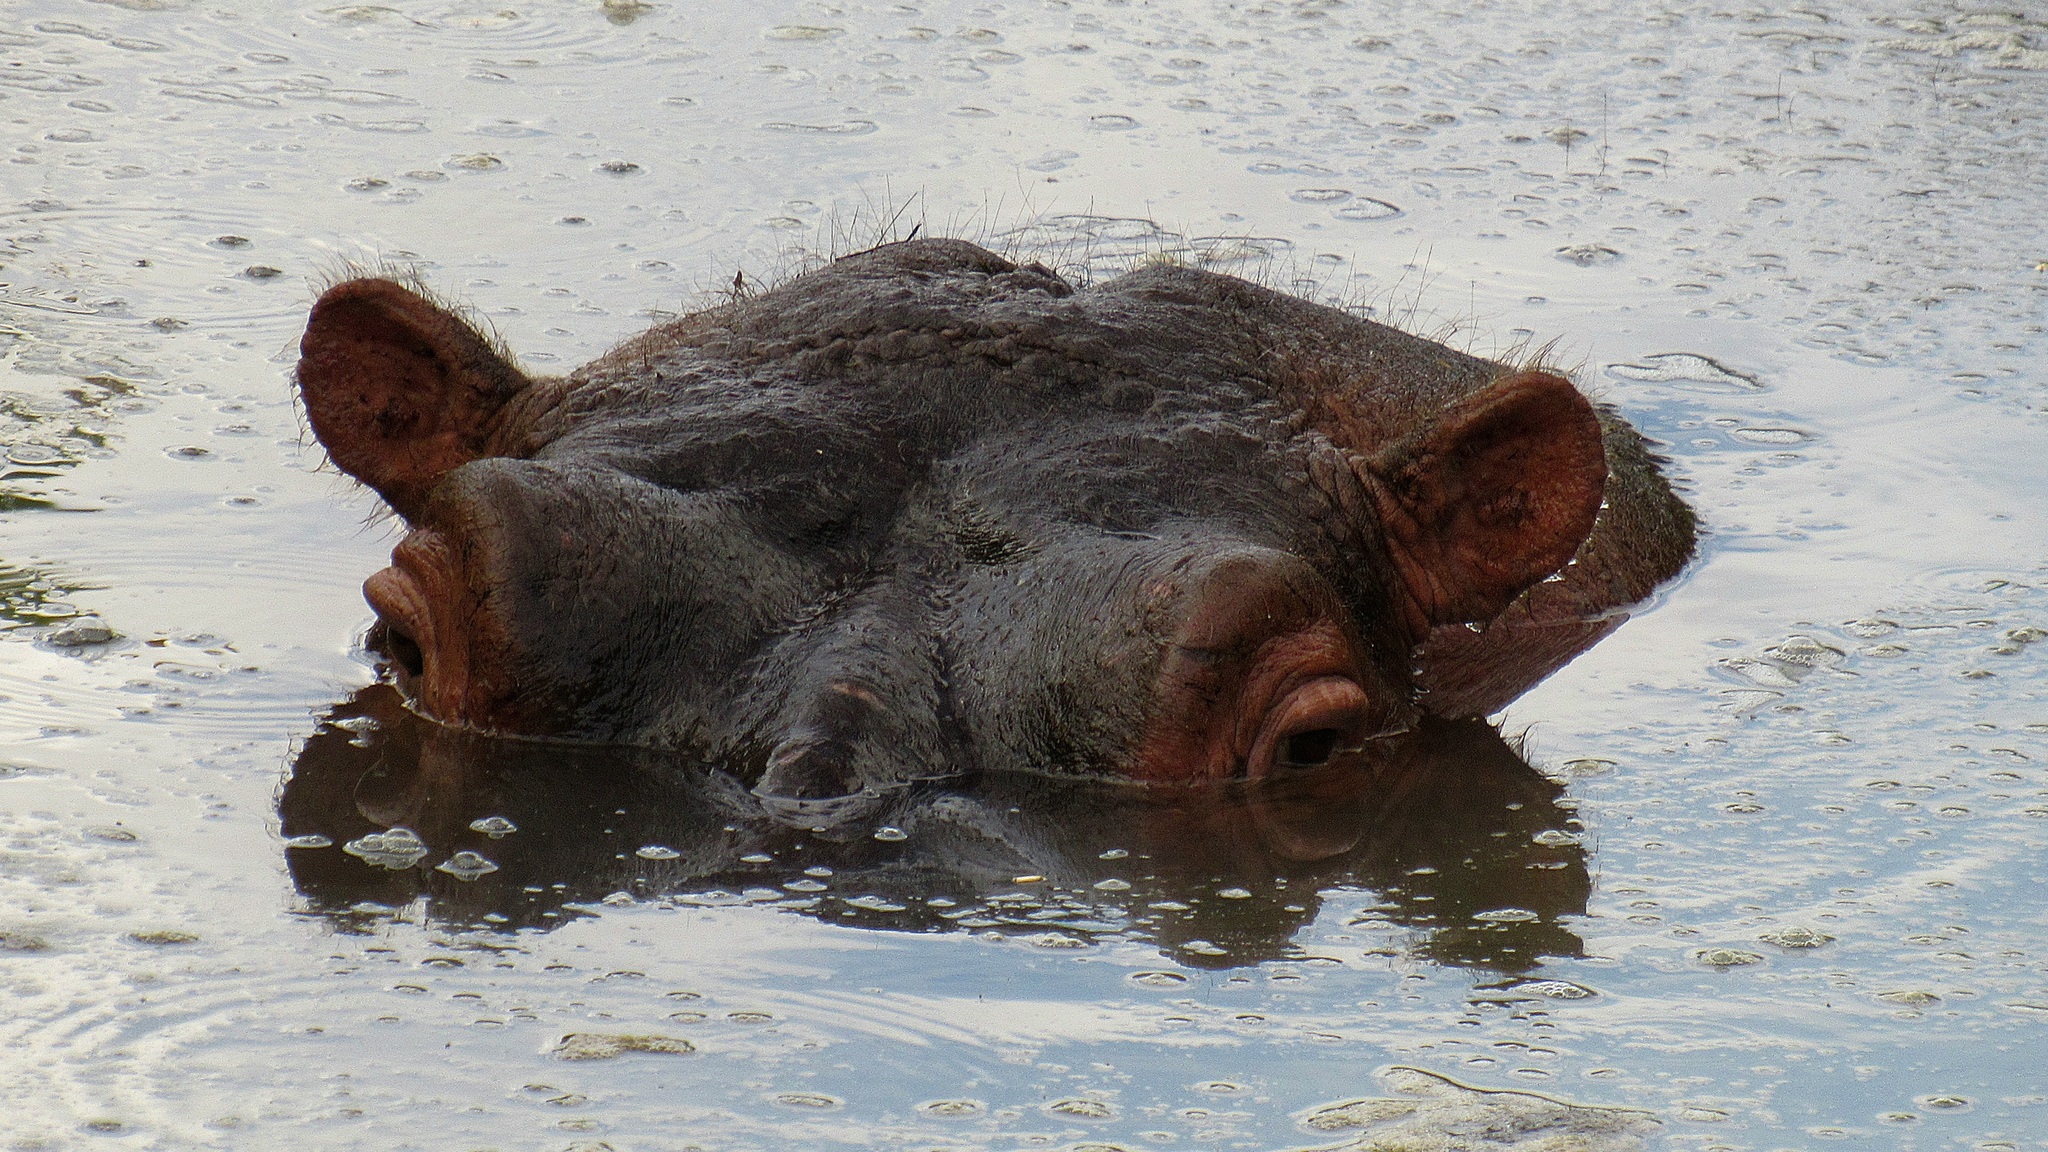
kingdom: Animalia
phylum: Chordata
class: Mammalia
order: Artiodactyla
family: Hippopotamidae
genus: Hippopotamus
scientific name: Hippopotamus amphibius
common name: Common hippopotamus
